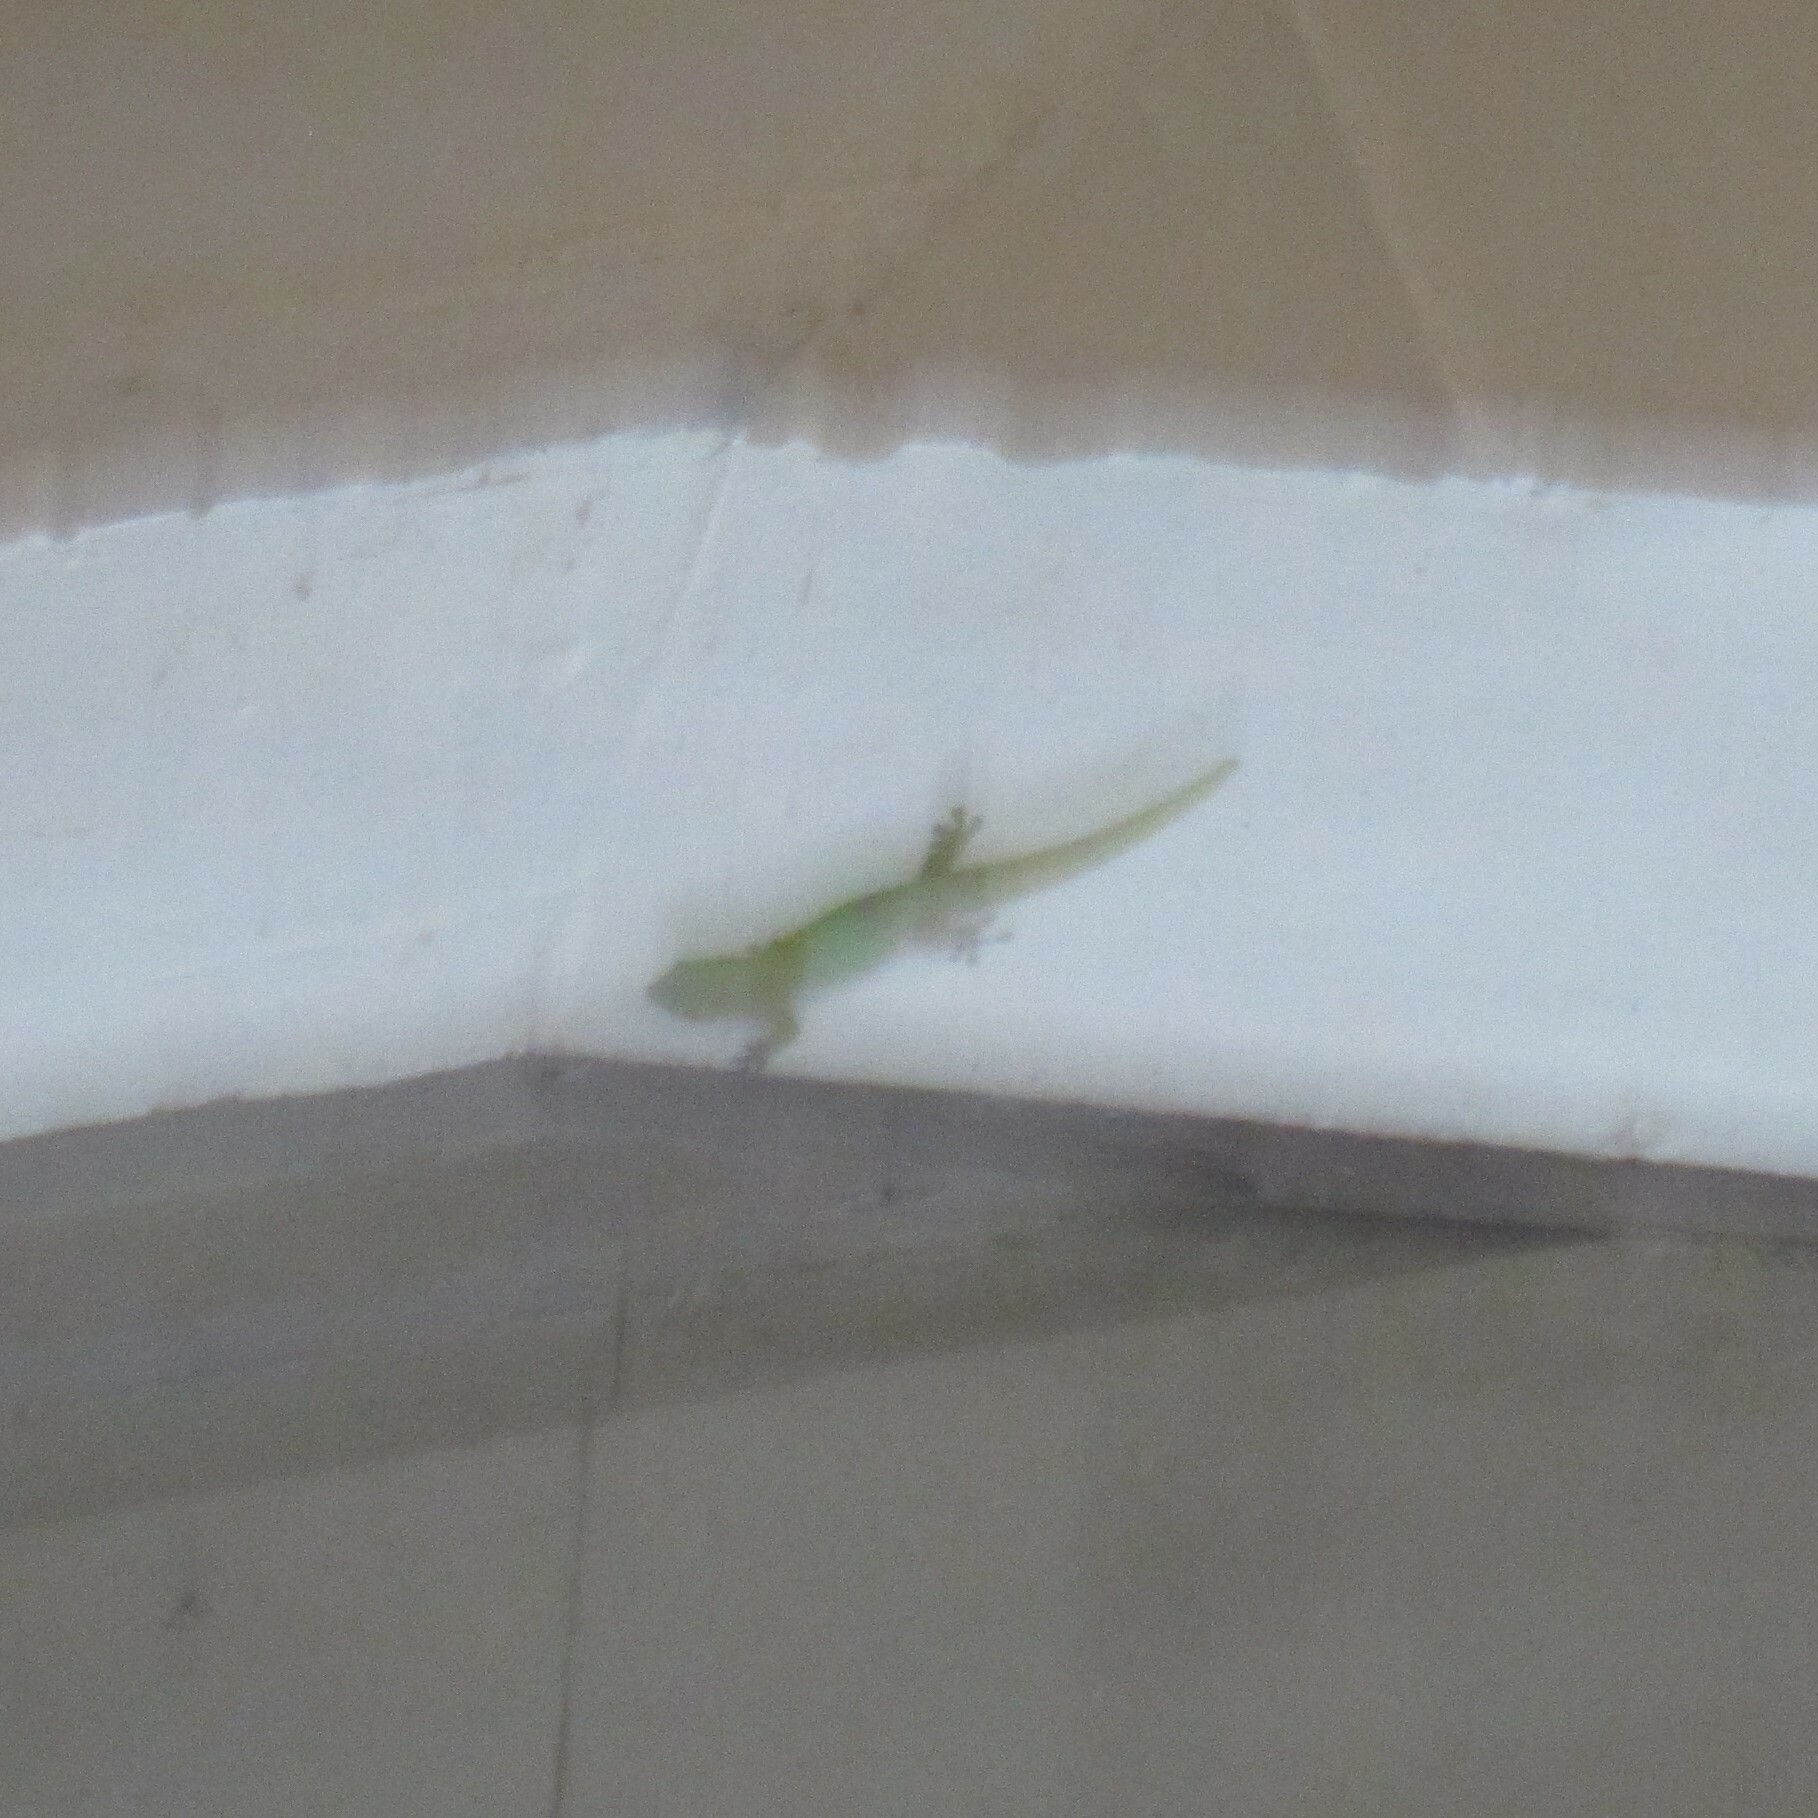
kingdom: Animalia
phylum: Chordata
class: Squamata
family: Gekkonidae
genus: Phelsuma
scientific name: Phelsuma laticauda
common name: Gold dust day gecko
